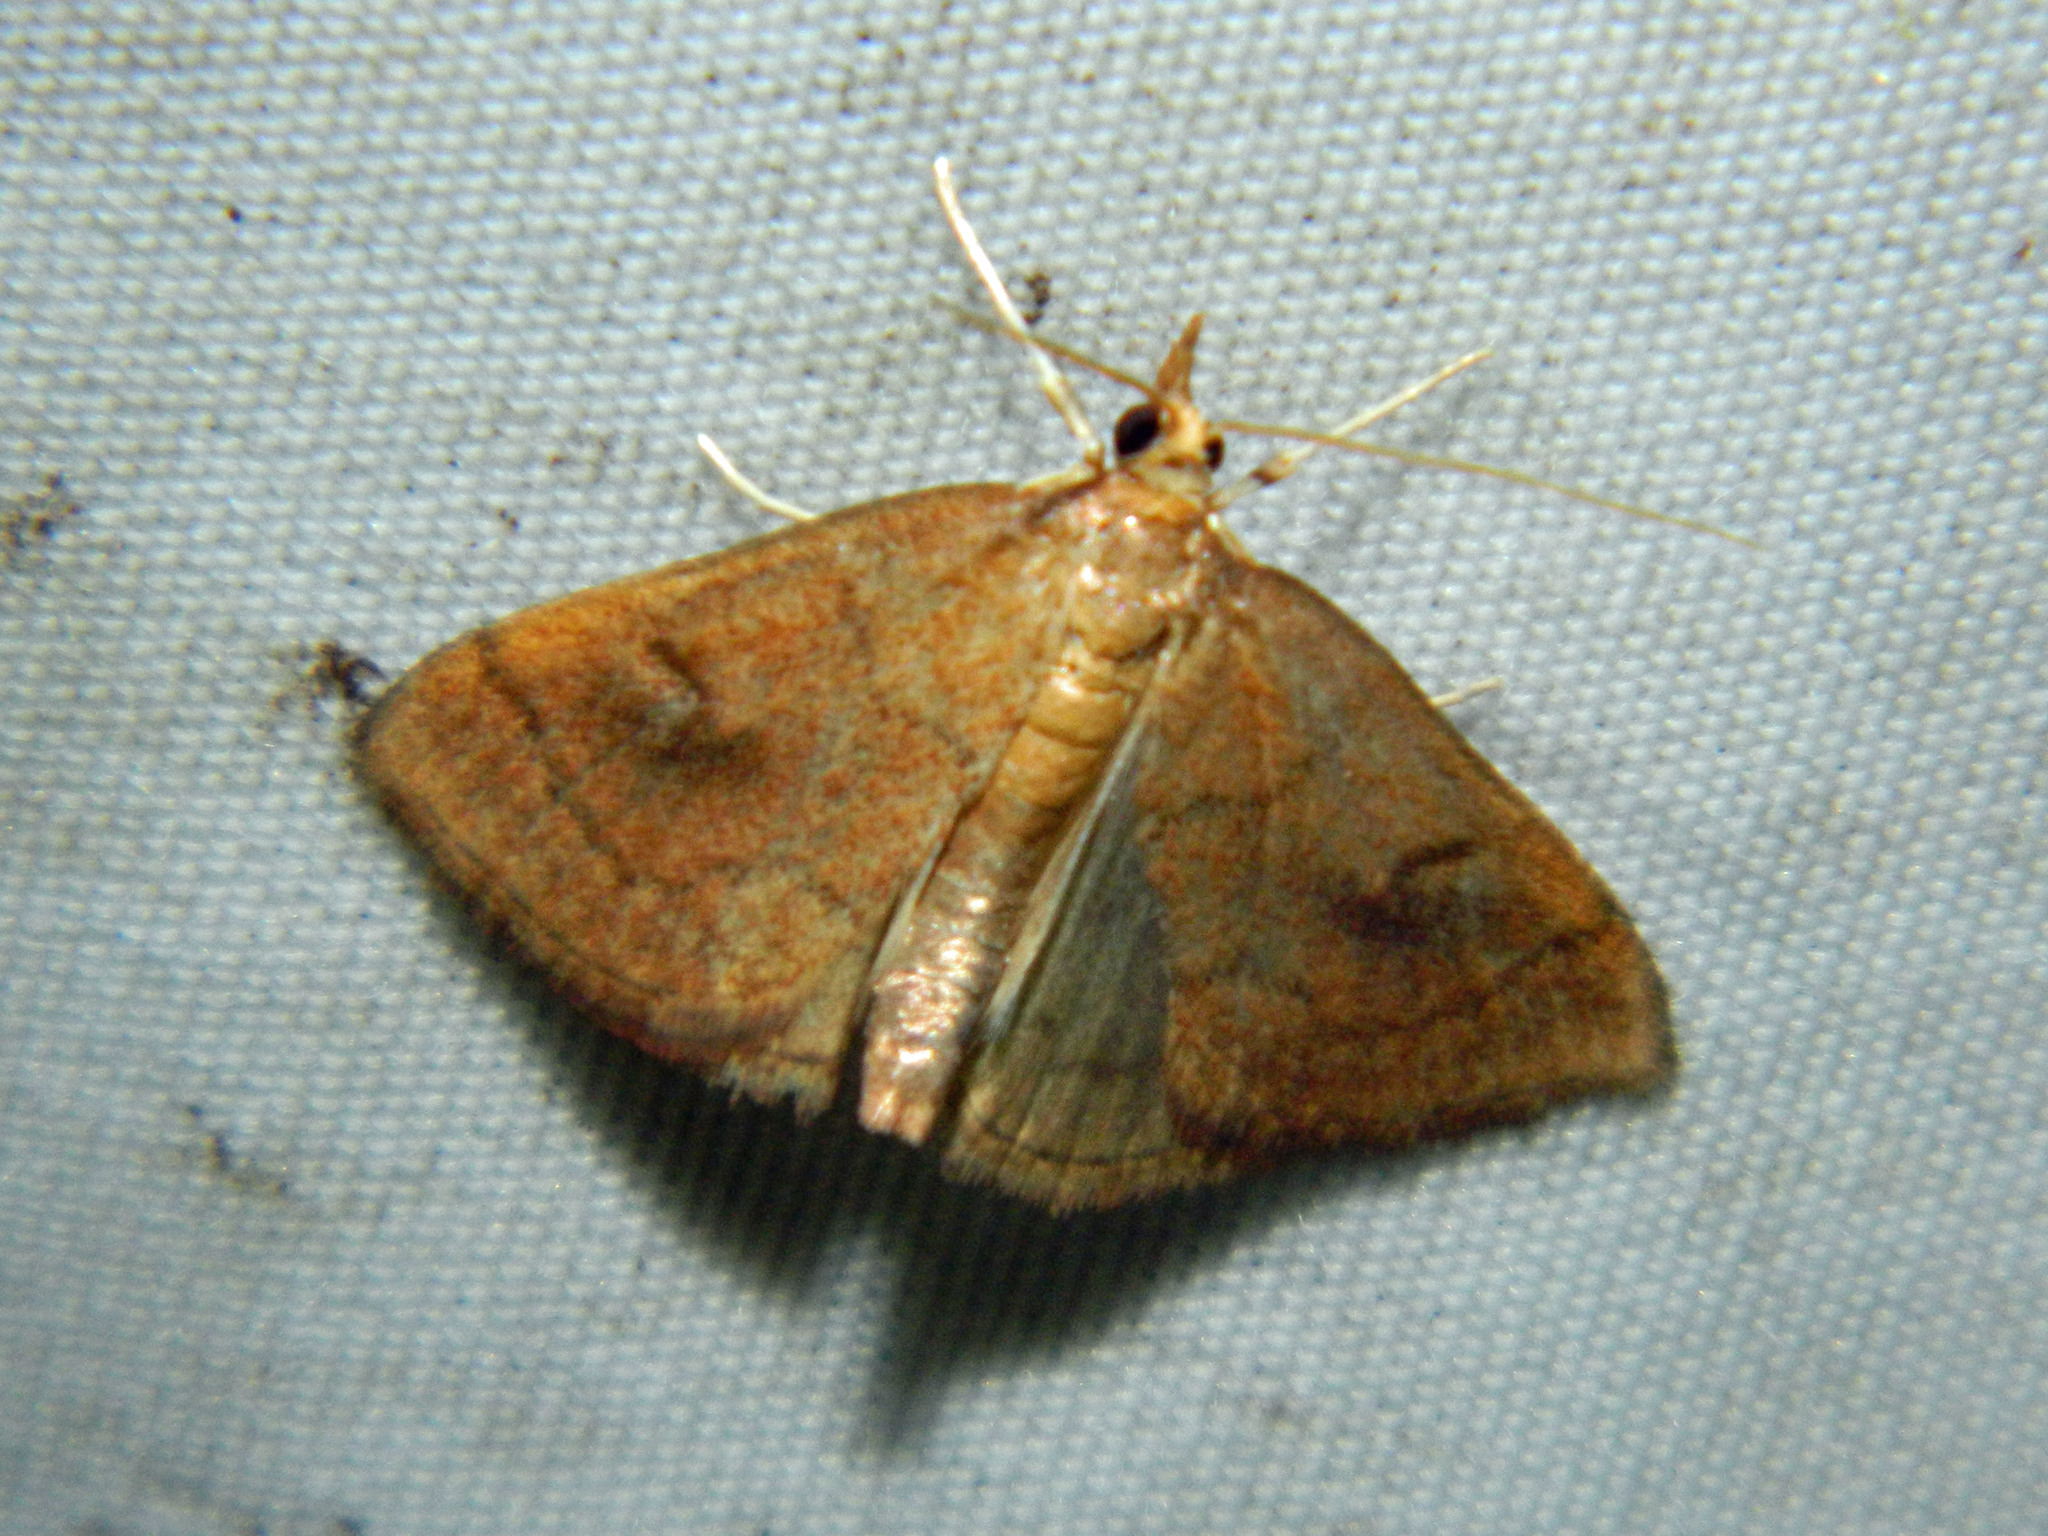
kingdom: Animalia
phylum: Arthropoda
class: Insecta
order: Lepidoptera
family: Crambidae
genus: Fumibotys
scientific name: Fumibotys fumalis
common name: Mint root borer moth
